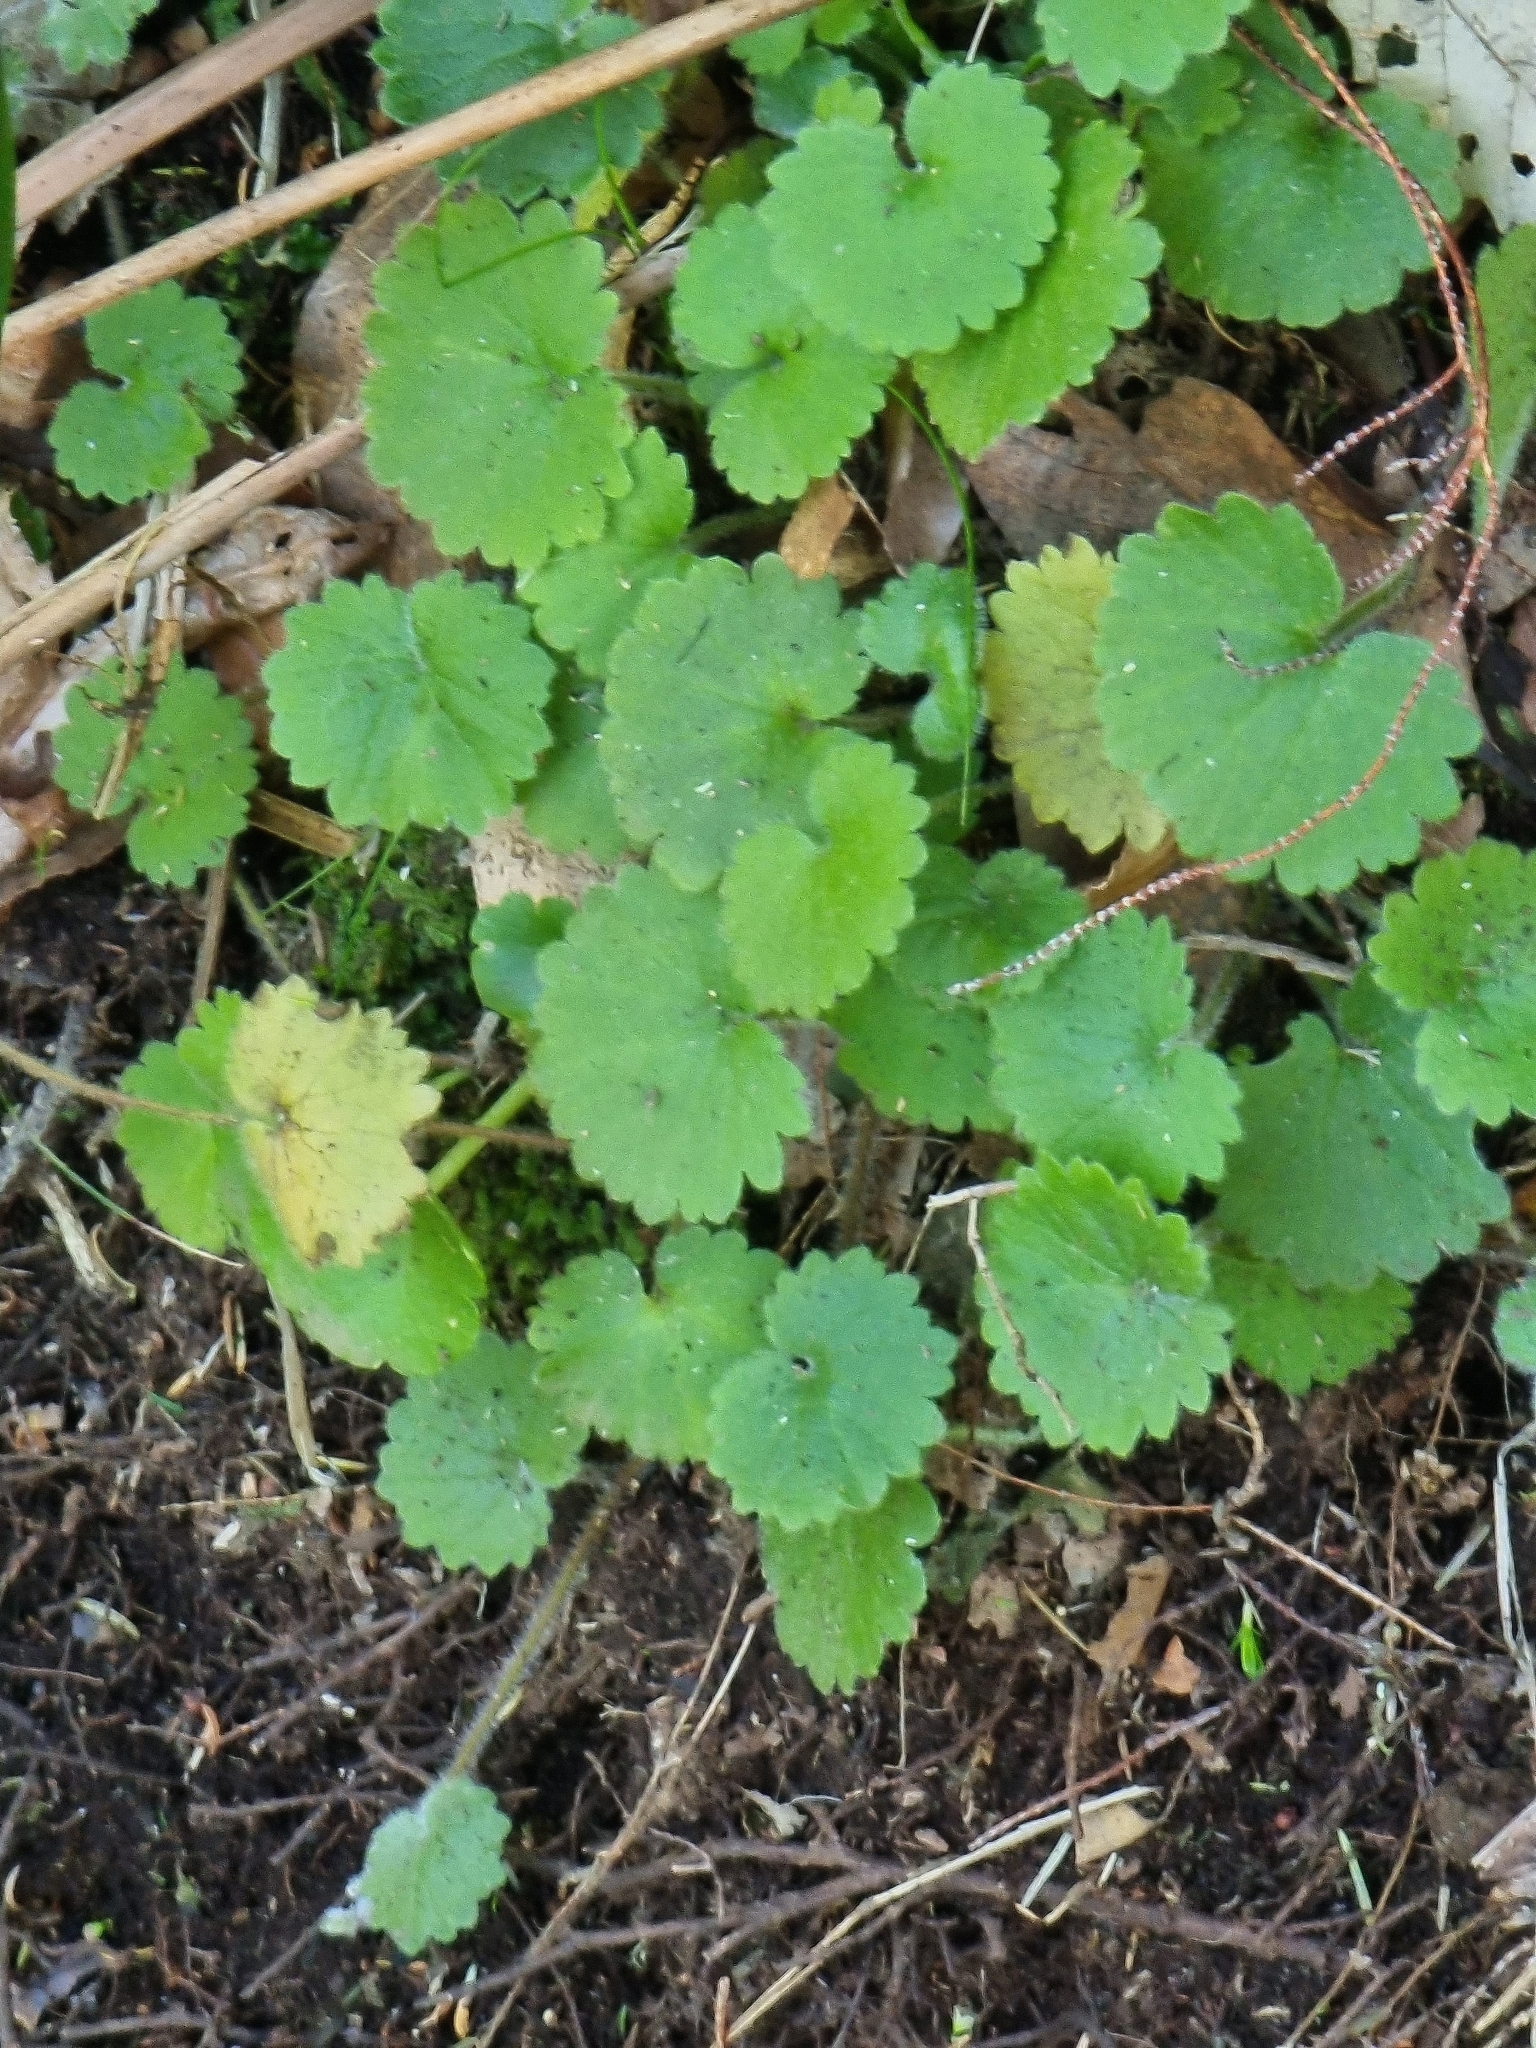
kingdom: Plantae
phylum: Tracheophyta
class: Magnoliopsida
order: Lamiales
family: Plantaginaceae
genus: Sibthorpia
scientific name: Sibthorpia peregrina
